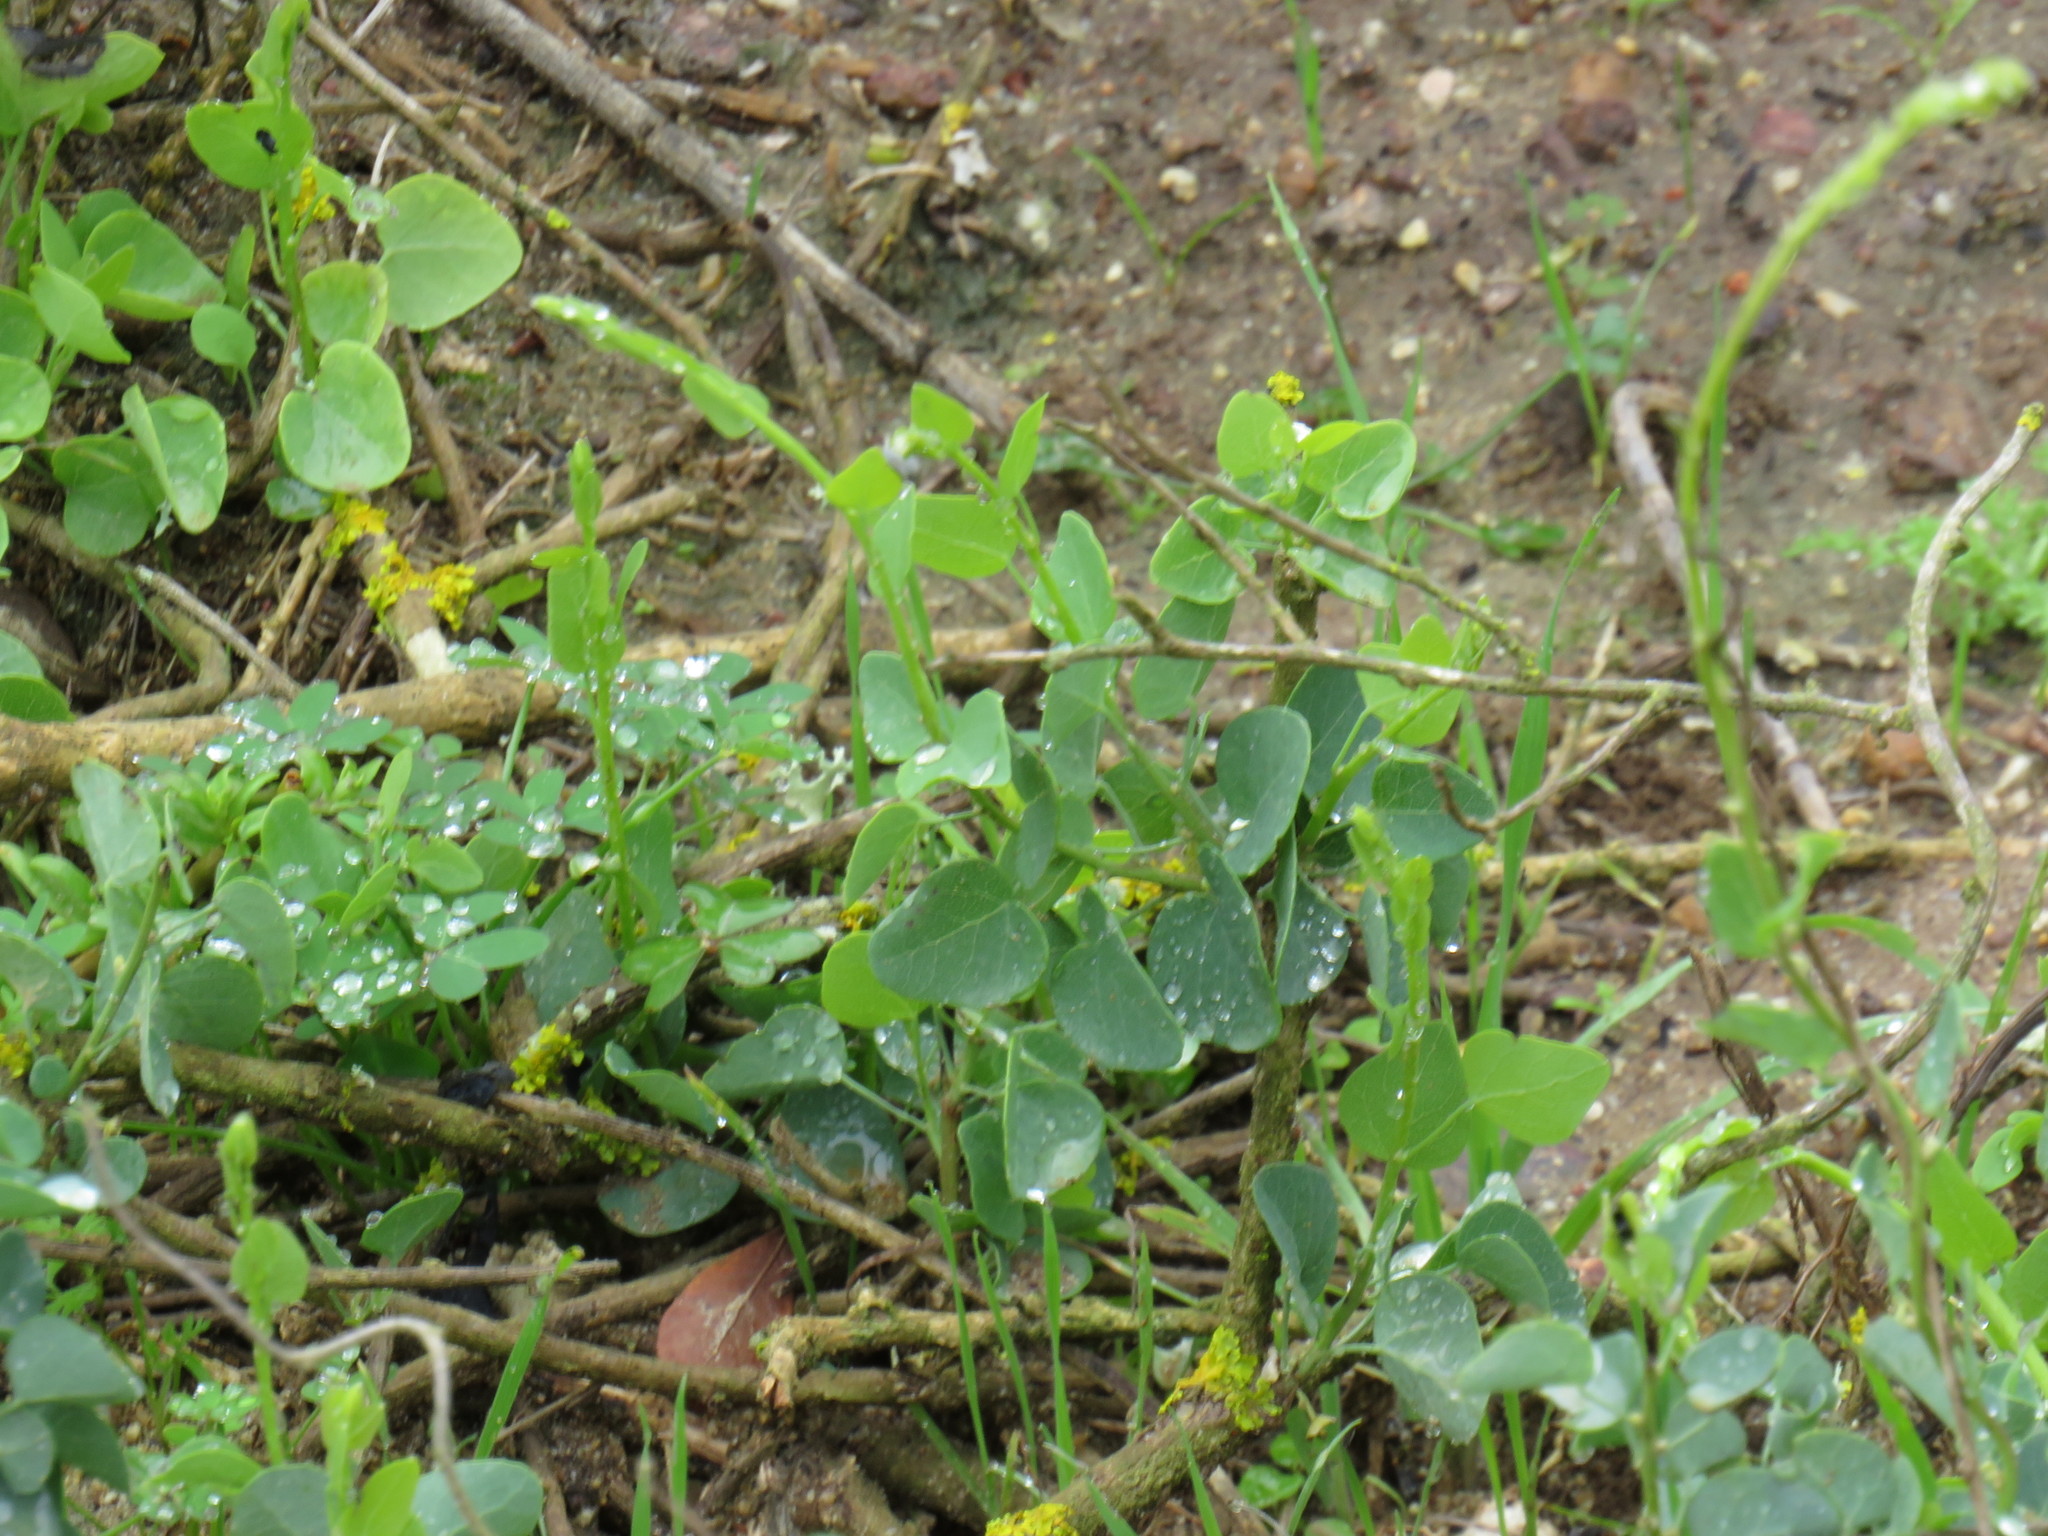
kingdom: Plantae
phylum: Tracheophyta
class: Magnoliopsida
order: Ranunculales
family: Menispermaceae
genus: Cissampelos
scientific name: Cissampelos capensis
